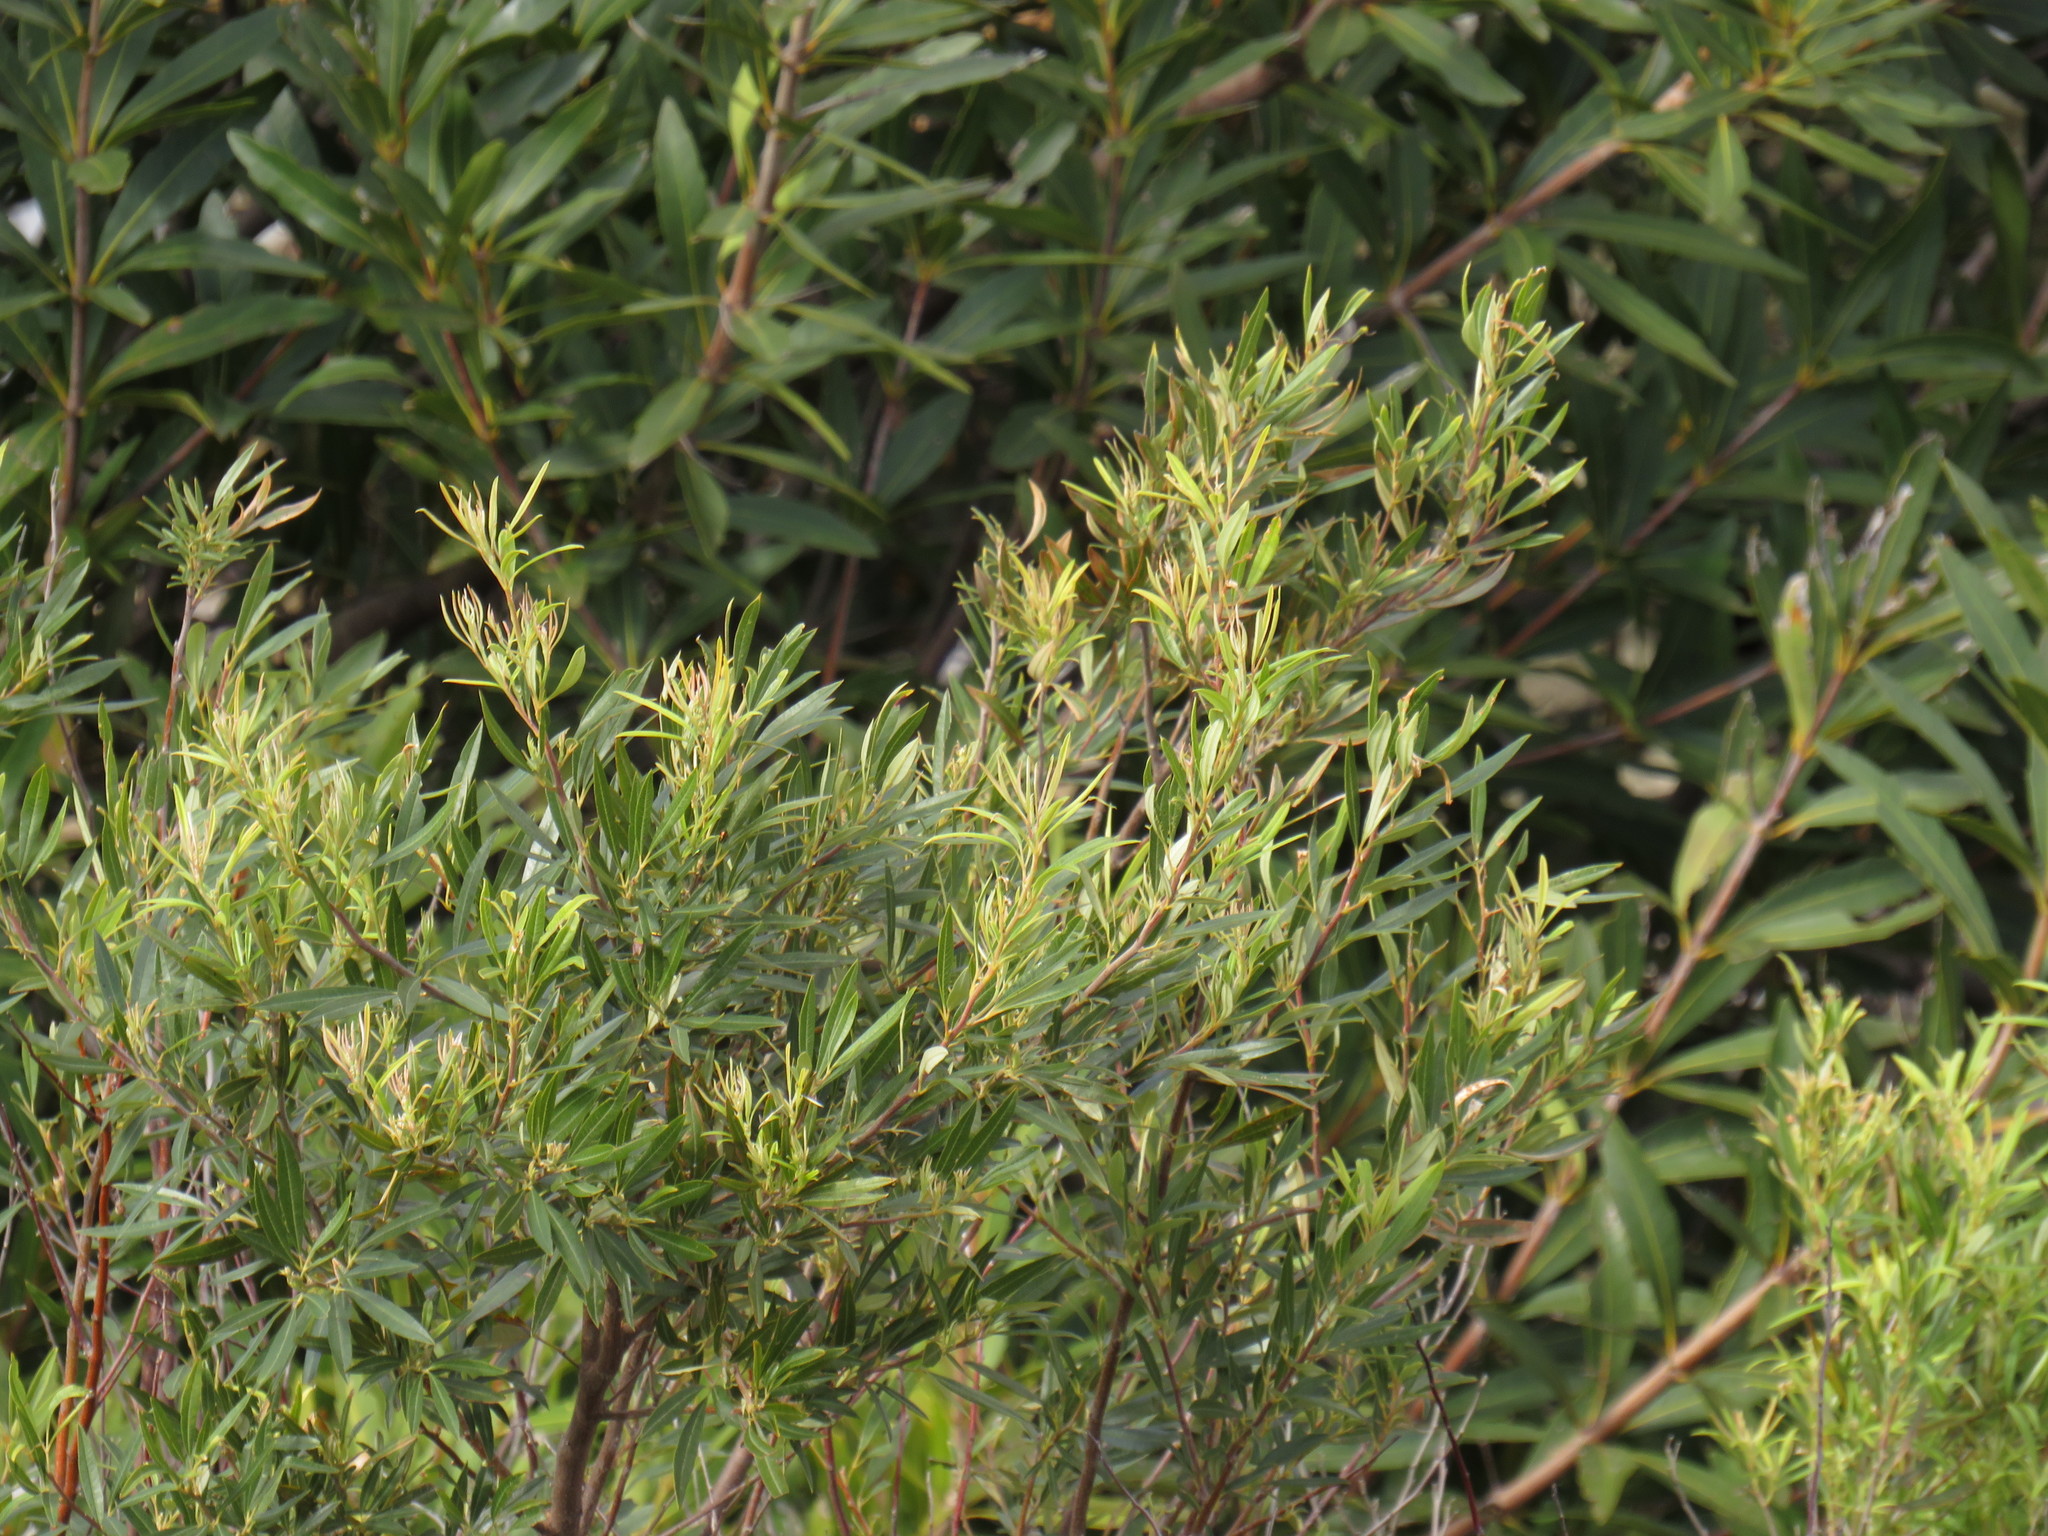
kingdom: Plantae
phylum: Tracheophyta
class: Magnoliopsida
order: Sapindales
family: Anacardiaceae
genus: Searsia
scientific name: Searsia angustifolia
